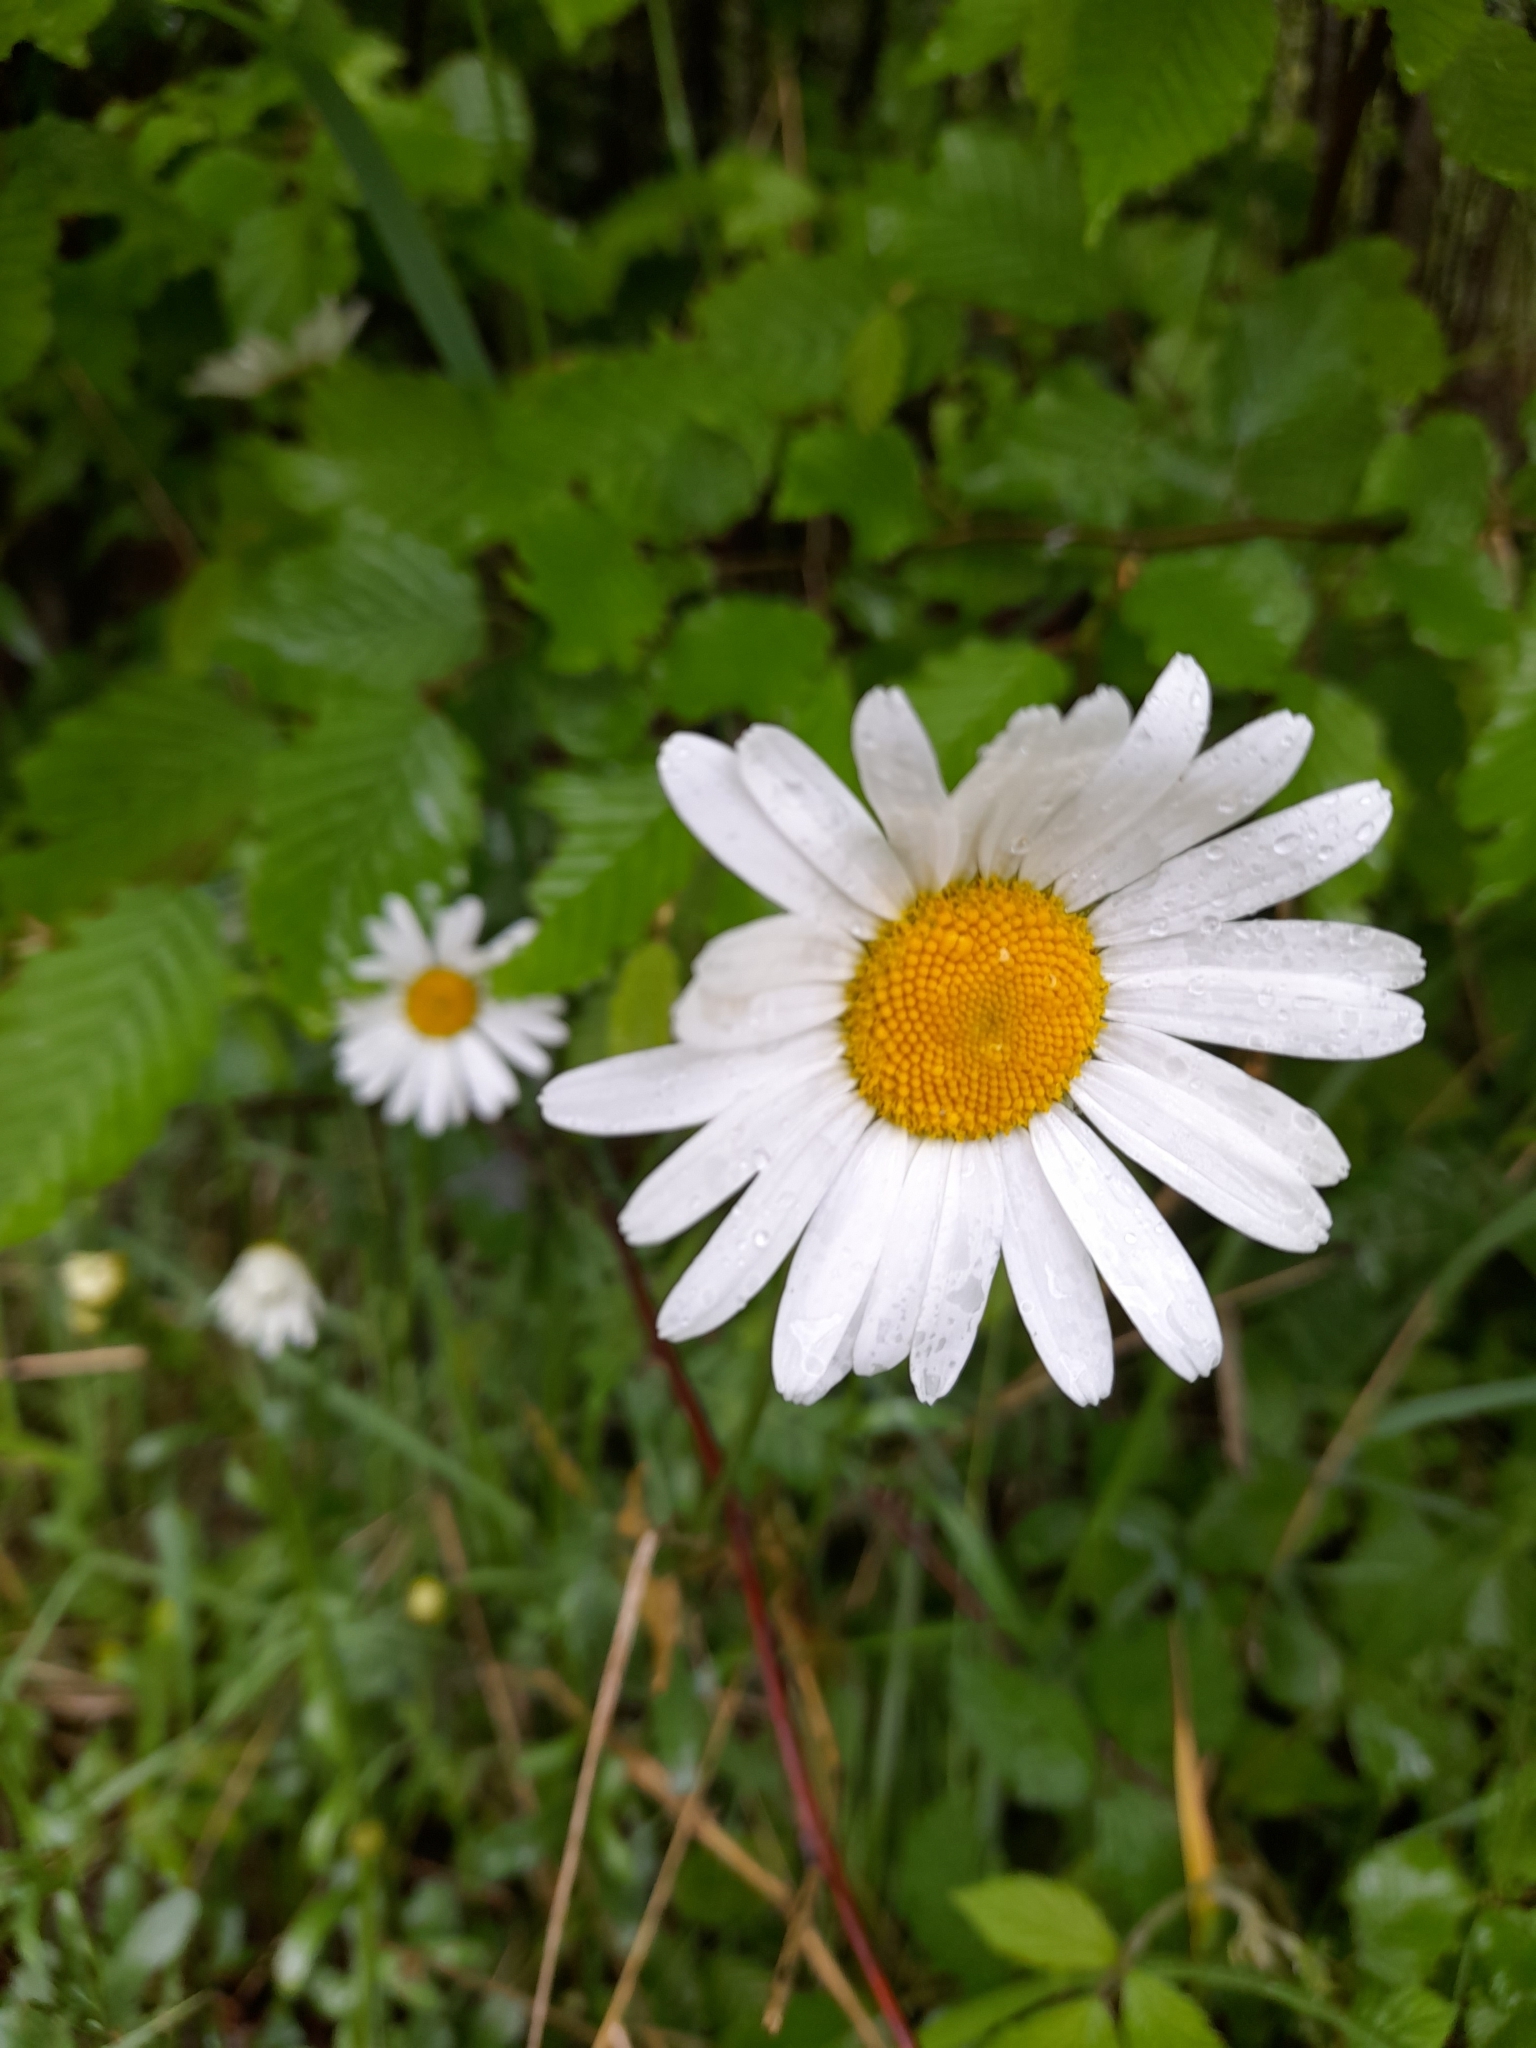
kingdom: Plantae
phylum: Tracheophyta
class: Magnoliopsida
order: Asterales
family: Asteraceae
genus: Leucanthemum
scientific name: Leucanthemum vulgare
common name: Oxeye daisy
